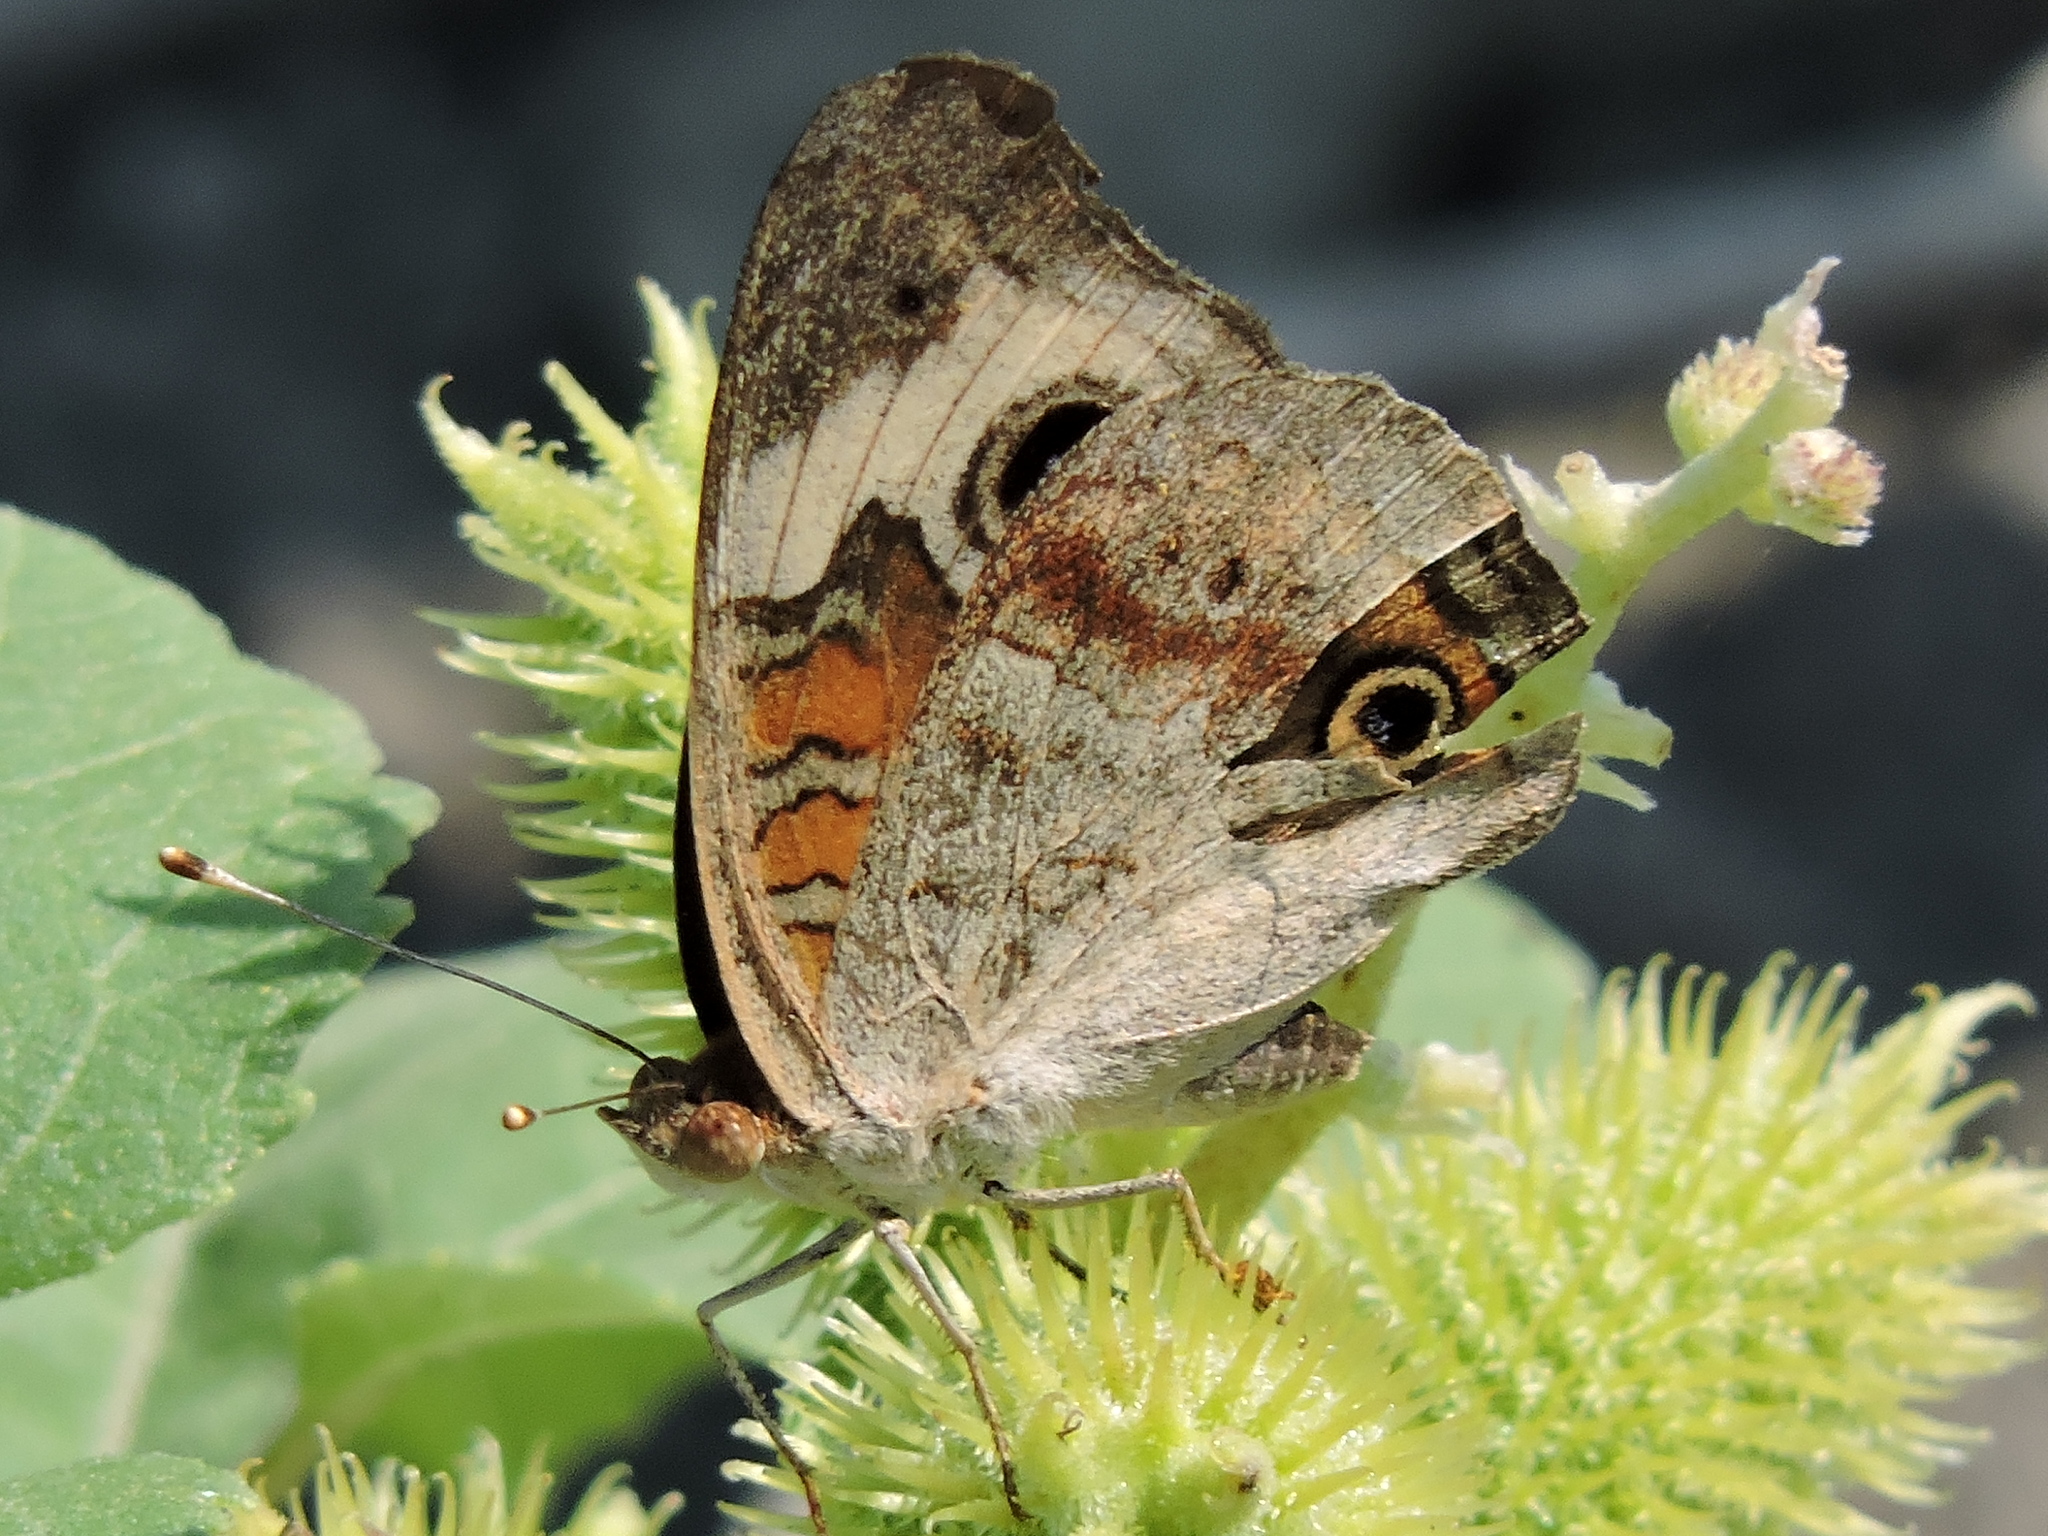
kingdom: Animalia
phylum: Arthropoda
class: Insecta
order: Lepidoptera
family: Nymphalidae
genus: Junonia
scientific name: Junonia coenia
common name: Common buckeye
